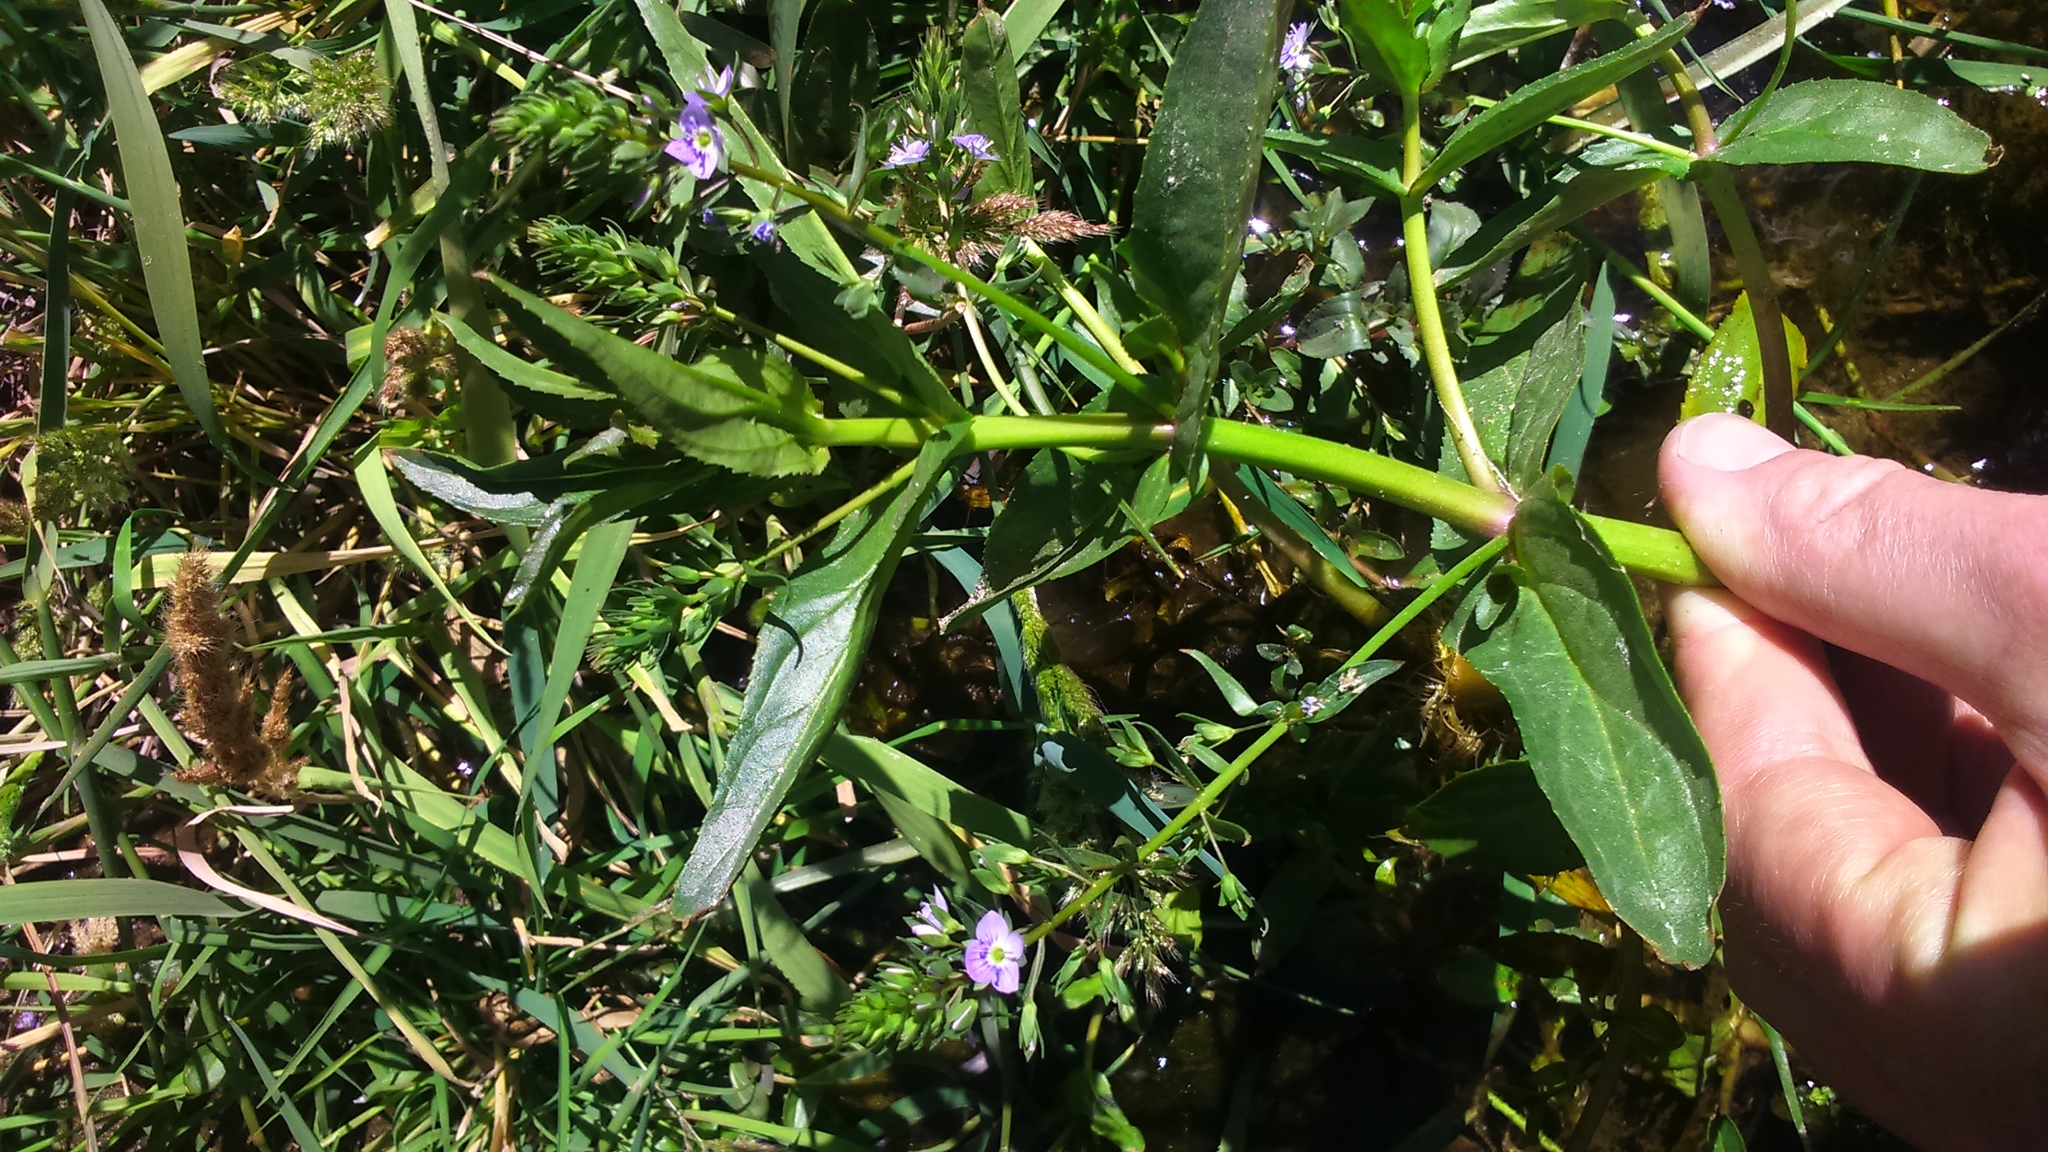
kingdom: Plantae
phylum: Tracheophyta
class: Magnoliopsida
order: Lamiales
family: Plantaginaceae
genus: Veronica
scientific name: Veronica anagallis-aquatica
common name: Water speedwell
